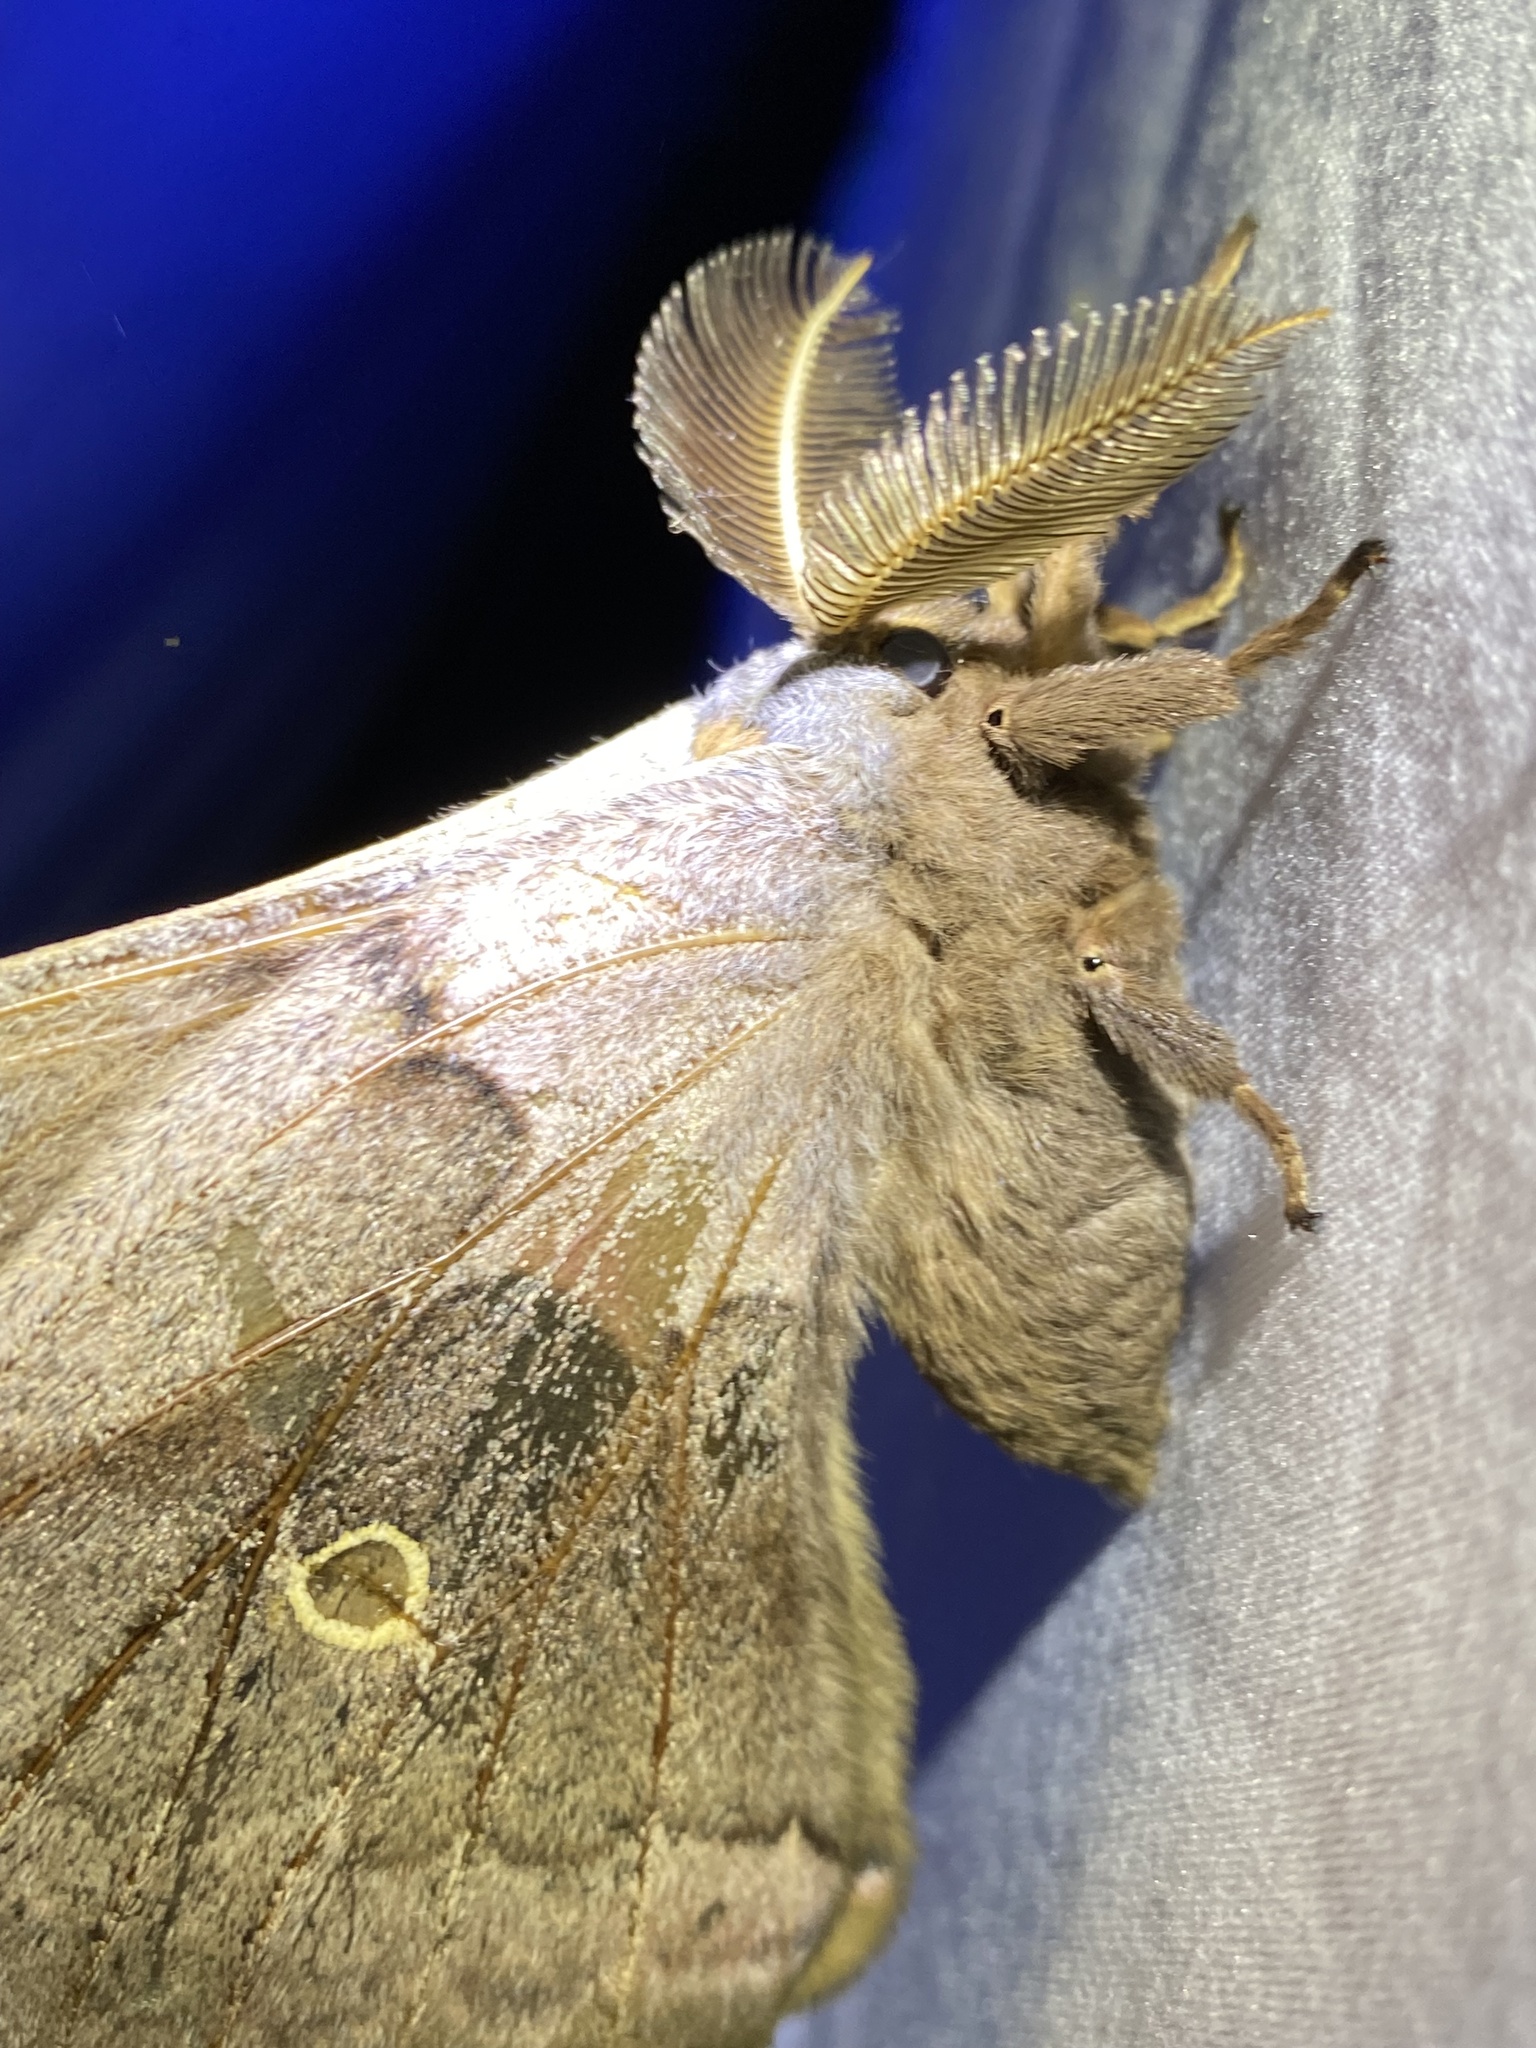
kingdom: Animalia
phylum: Arthropoda
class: Insecta
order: Lepidoptera
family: Saturniidae
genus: Antheraea
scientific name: Antheraea polyphemus
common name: Polyphemus moth
